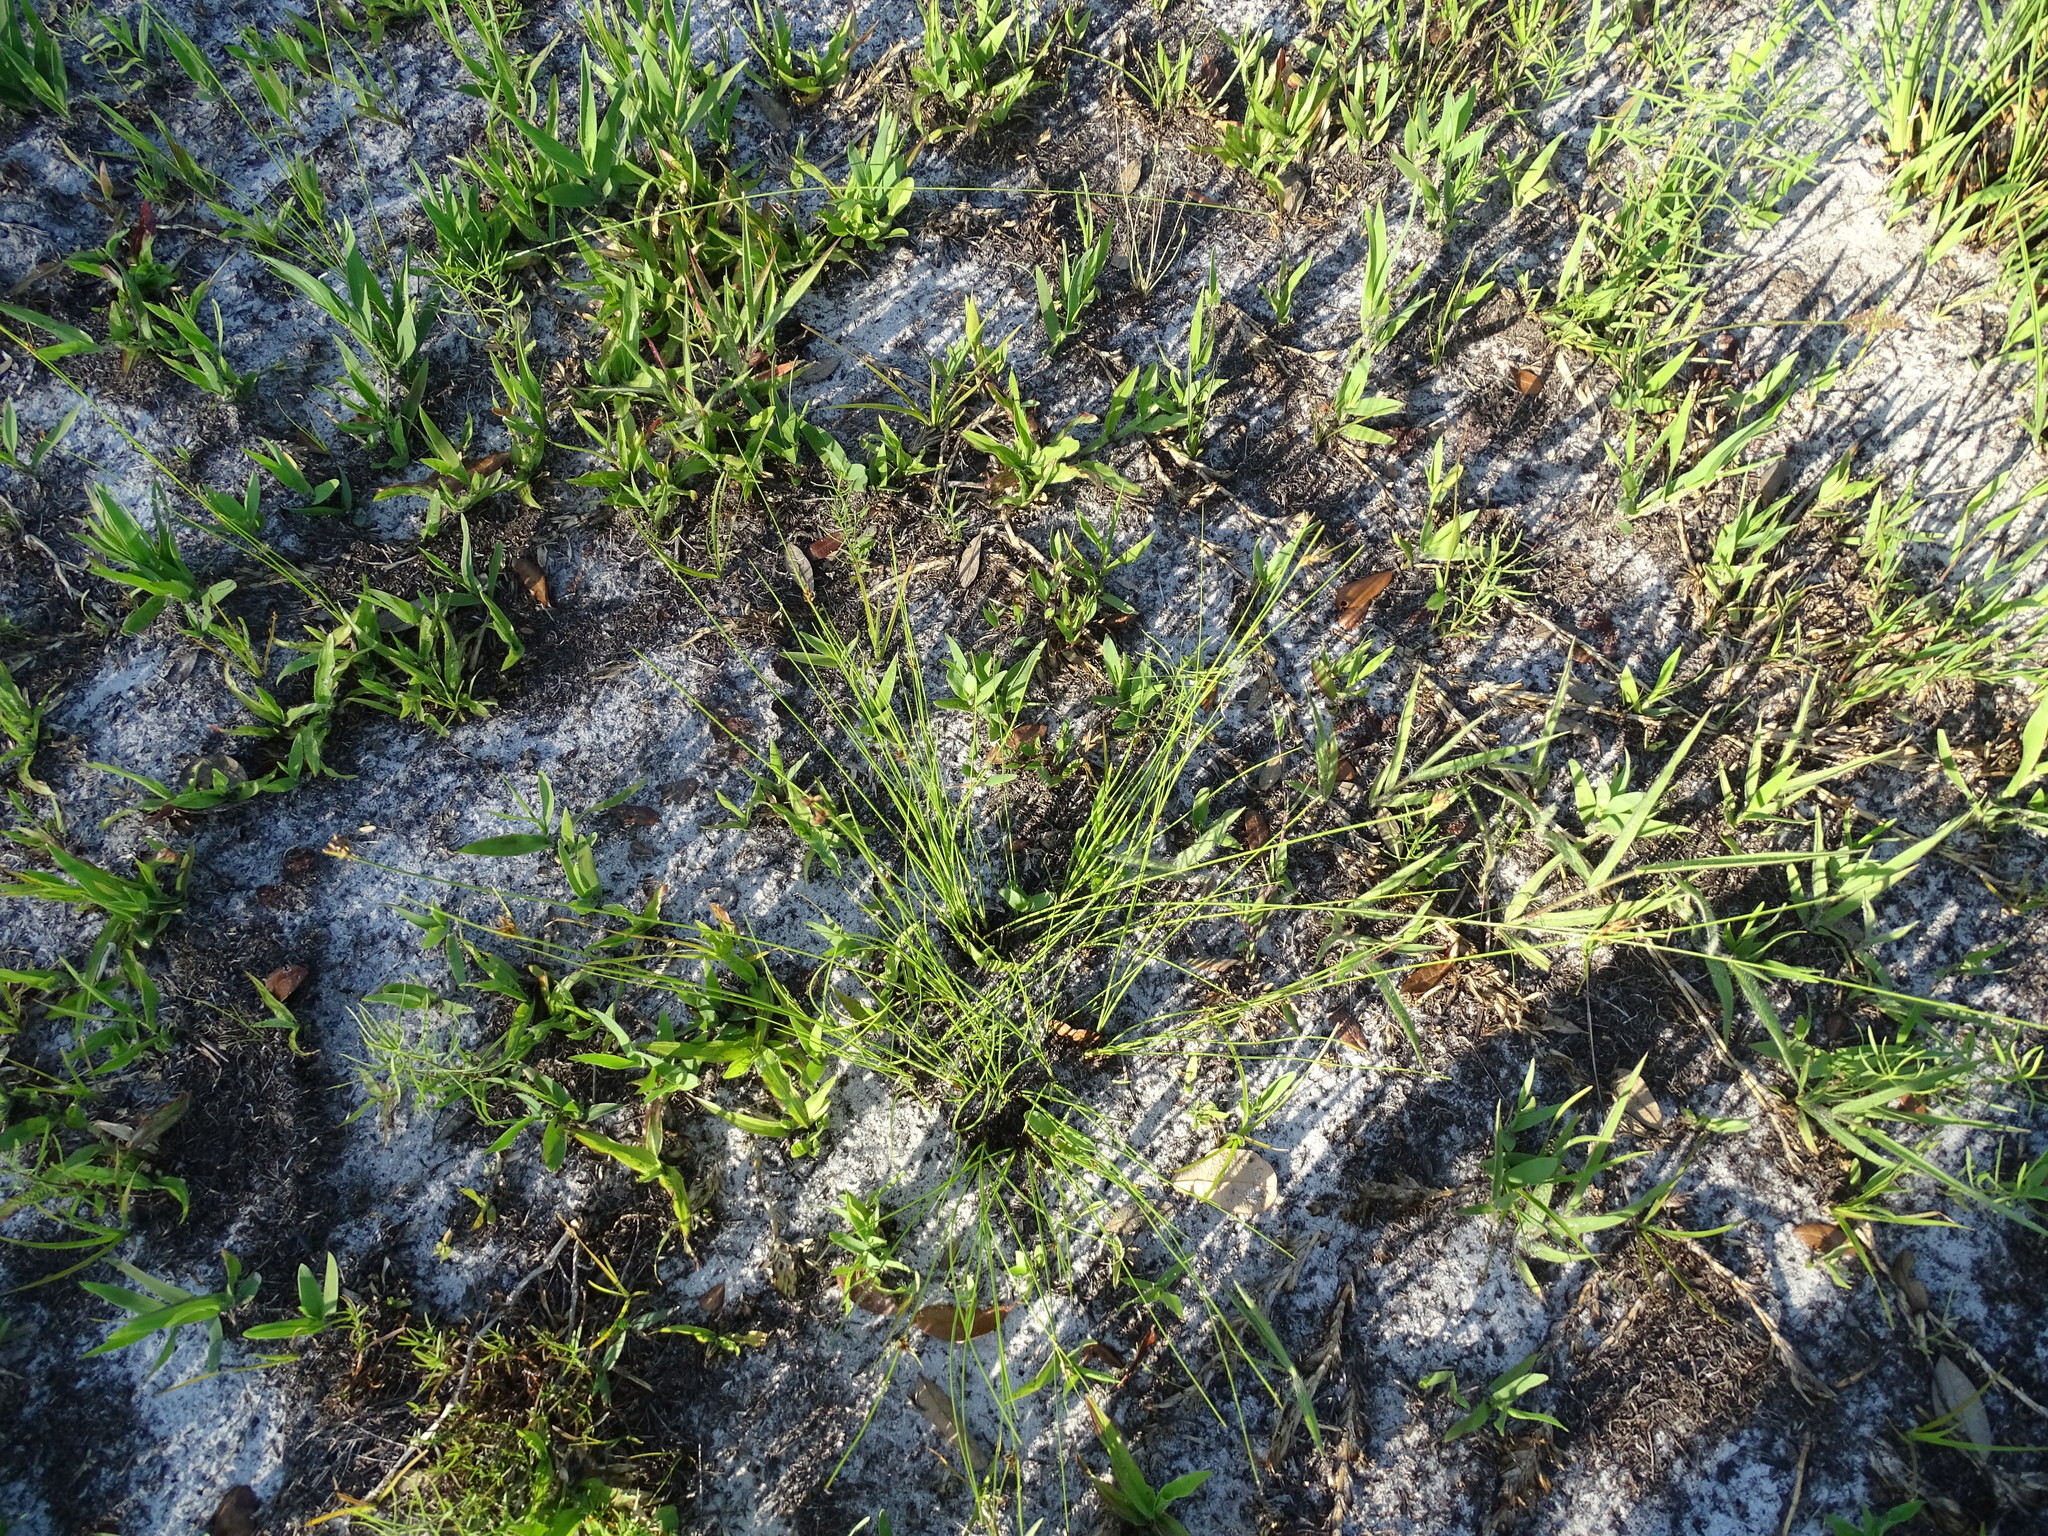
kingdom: Plantae
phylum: Tracheophyta
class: Liliopsida
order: Poales
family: Cyperaceae
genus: Rhynchospora
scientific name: Rhynchospora plumosa
